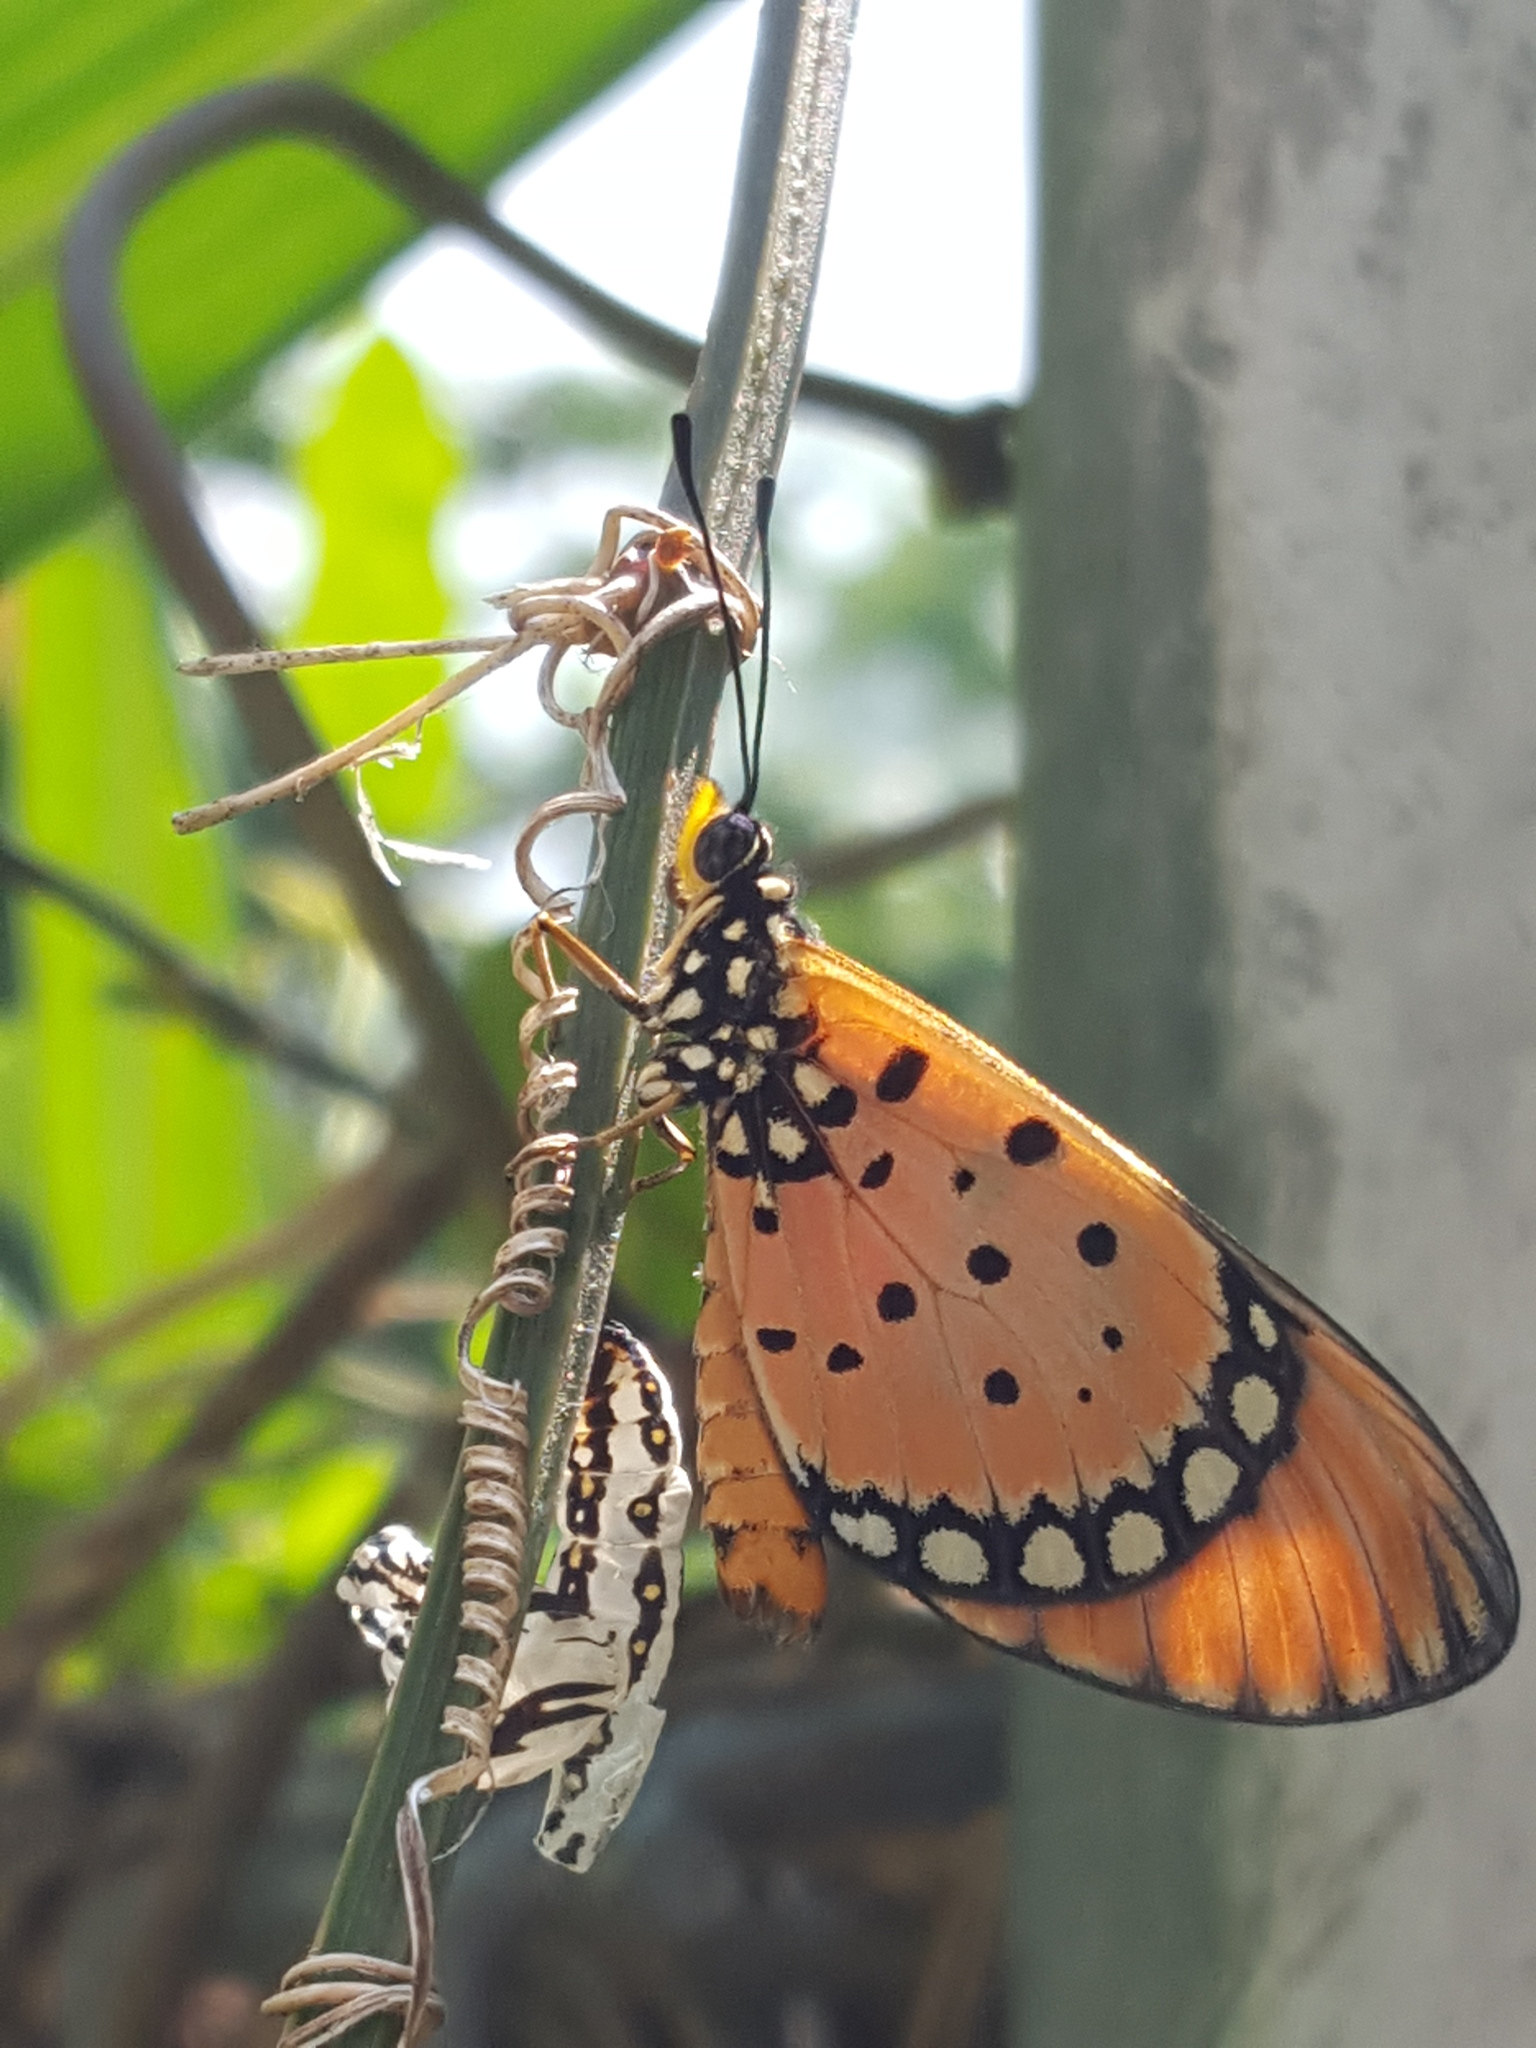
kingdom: Animalia
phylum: Arthropoda
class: Insecta
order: Lepidoptera
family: Nymphalidae
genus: Acraea
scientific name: Acraea terpsicore
